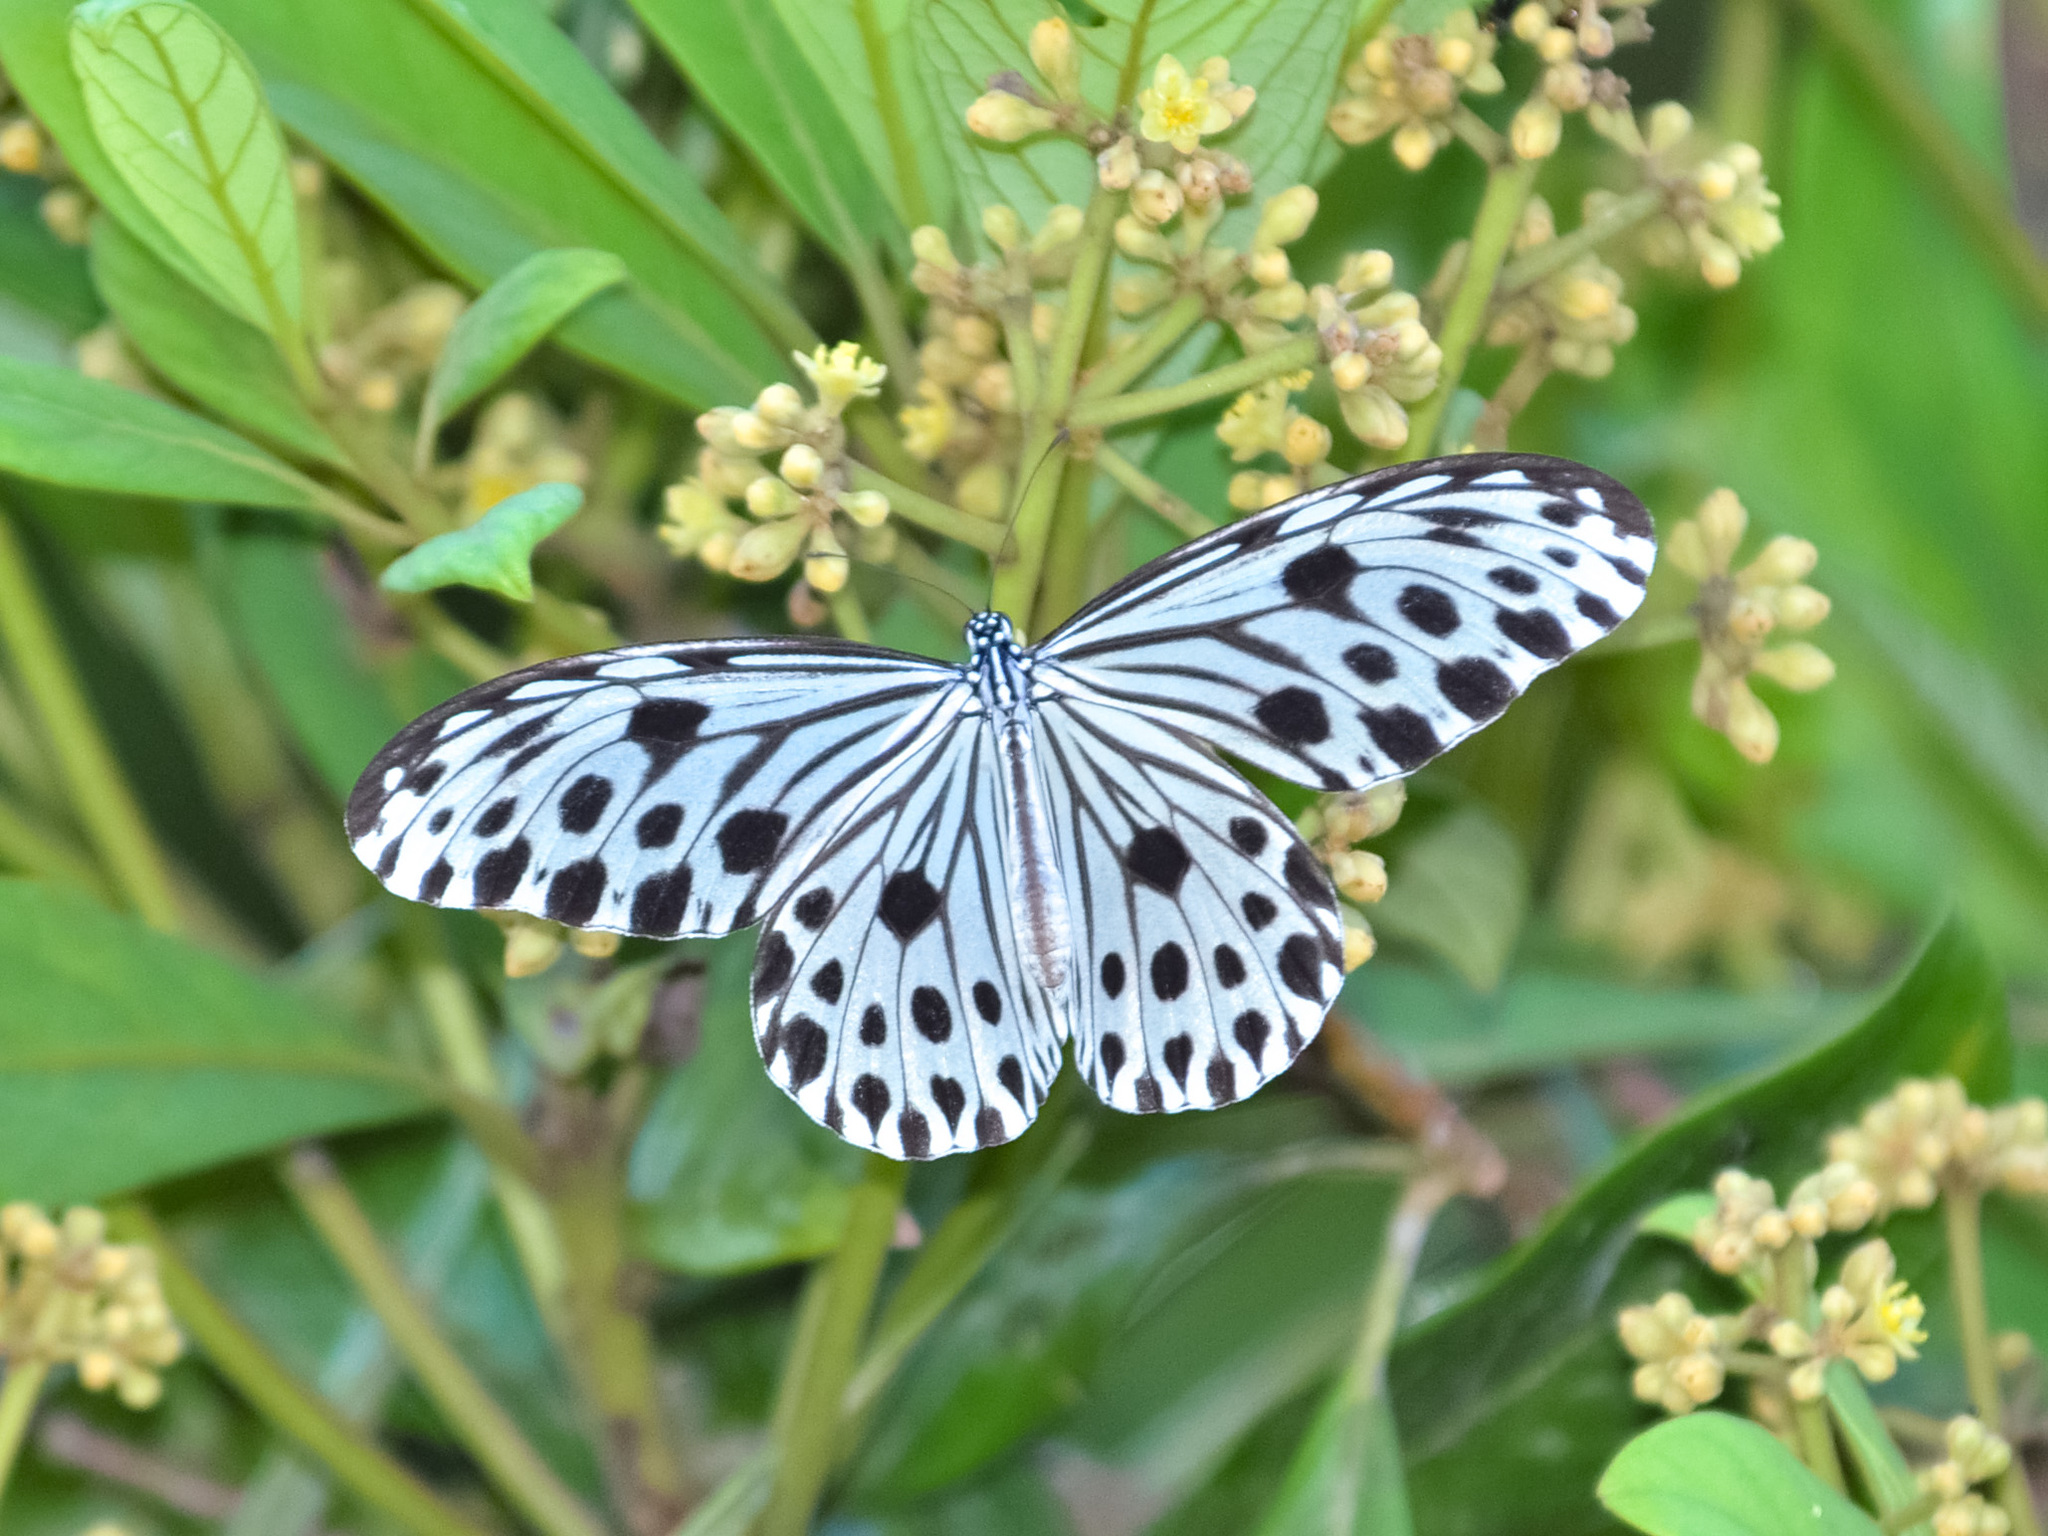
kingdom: Animalia
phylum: Arthropoda
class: Insecta
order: Lepidoptera
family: Nymphalidae
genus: Ideopsis
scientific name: Ideopsis gaura
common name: Smaller wood nymph
